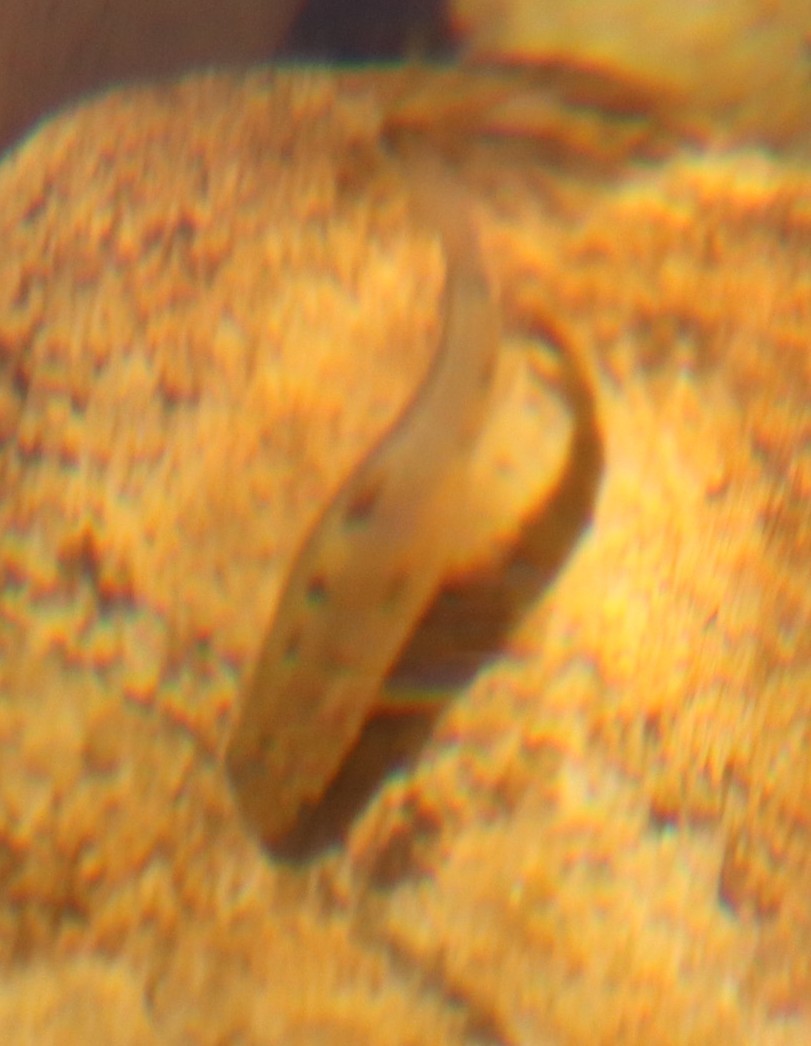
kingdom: Animalia
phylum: Chordata
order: Cypriniformes
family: Cyprinidae
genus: Pseudobarbus
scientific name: Pseudobarbus burgi
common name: Berg river redfin
